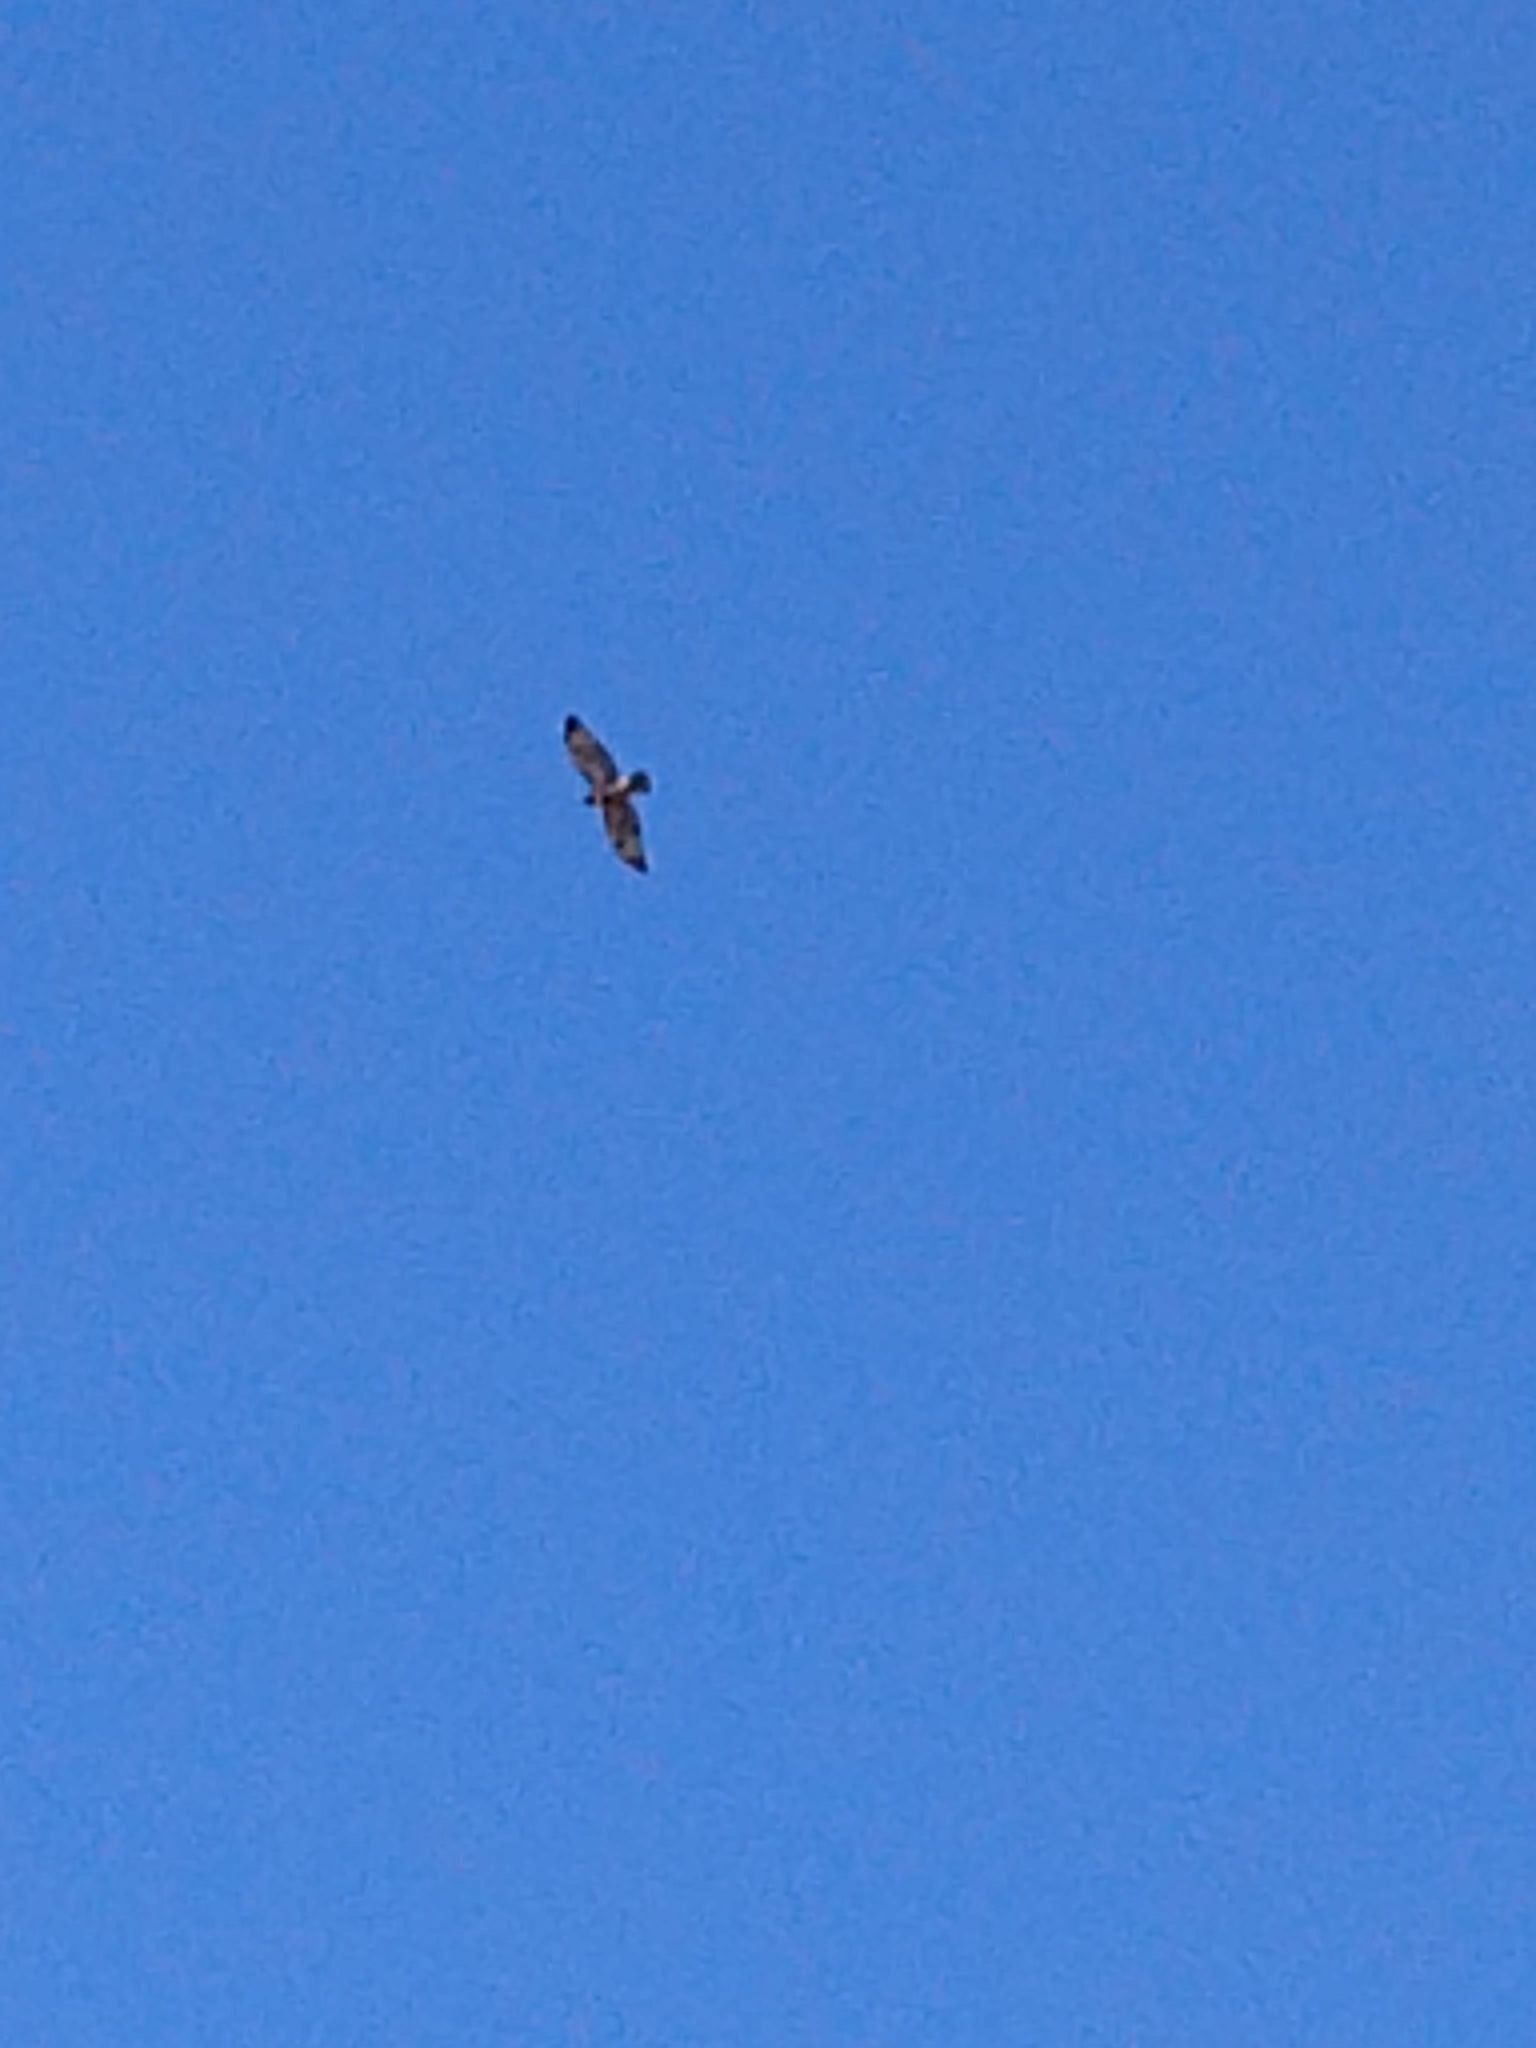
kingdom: Animalia
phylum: Chordata
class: Aves
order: Accipitriformes
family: Accipitridae
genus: Buteo
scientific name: Buteo jamaicensis
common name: Red-tailed hawk
